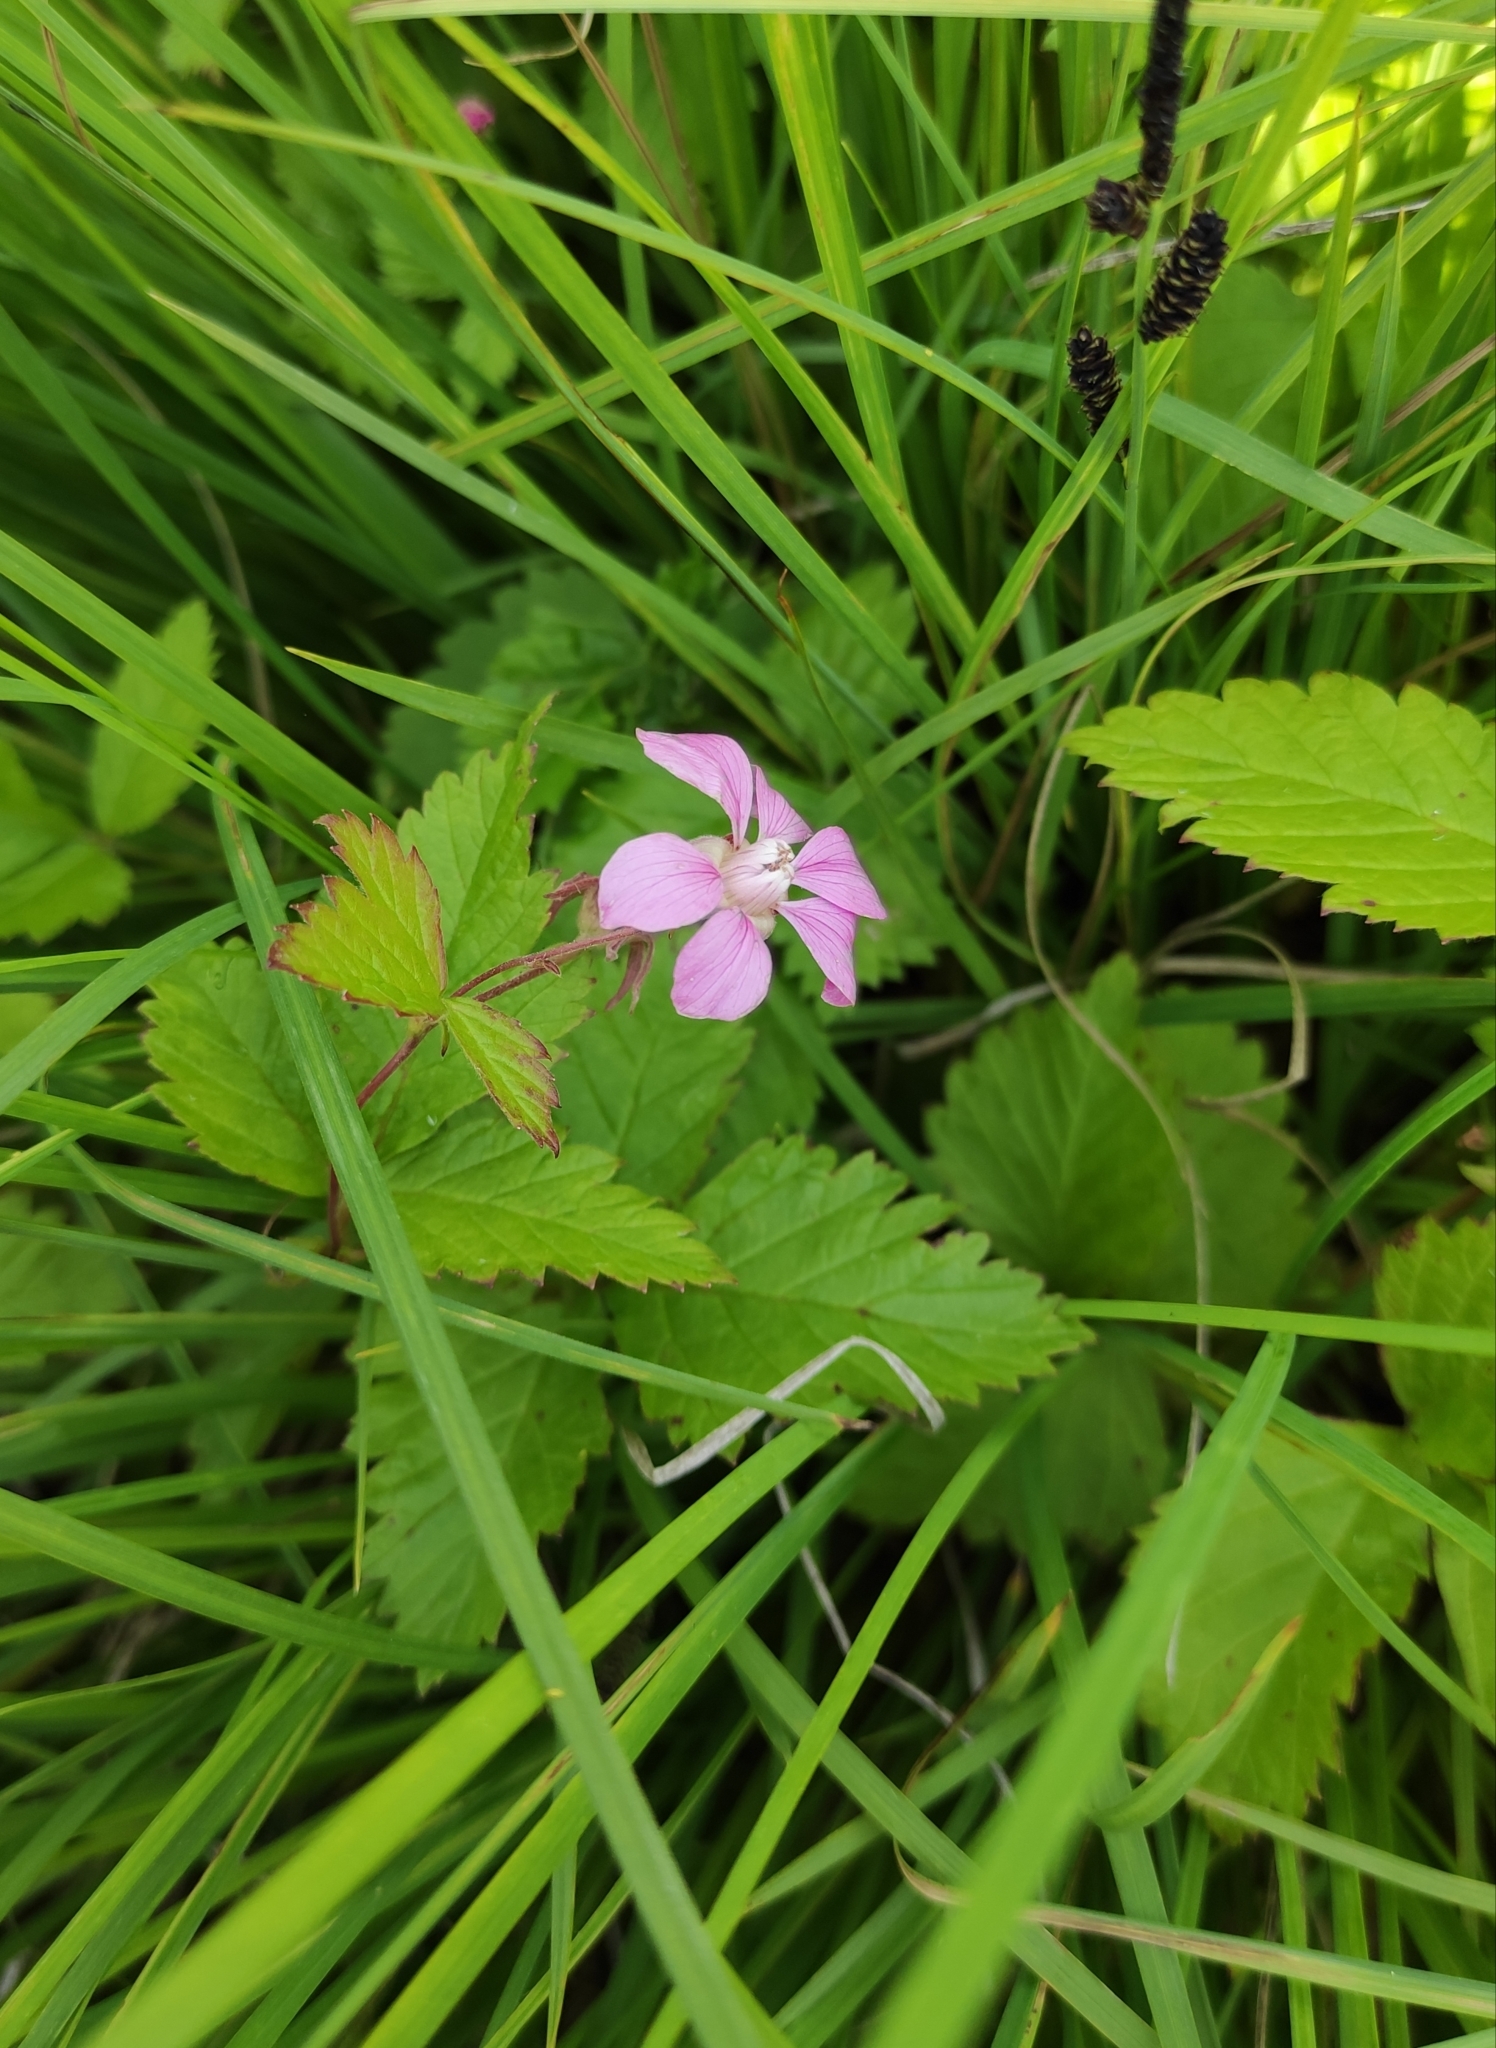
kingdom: Plantae
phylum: Tracheophyta
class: Magnoliopsida
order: Rosales
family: Rosaceae
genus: Rubus
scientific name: Rubus arcticus
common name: Arctic bramble
